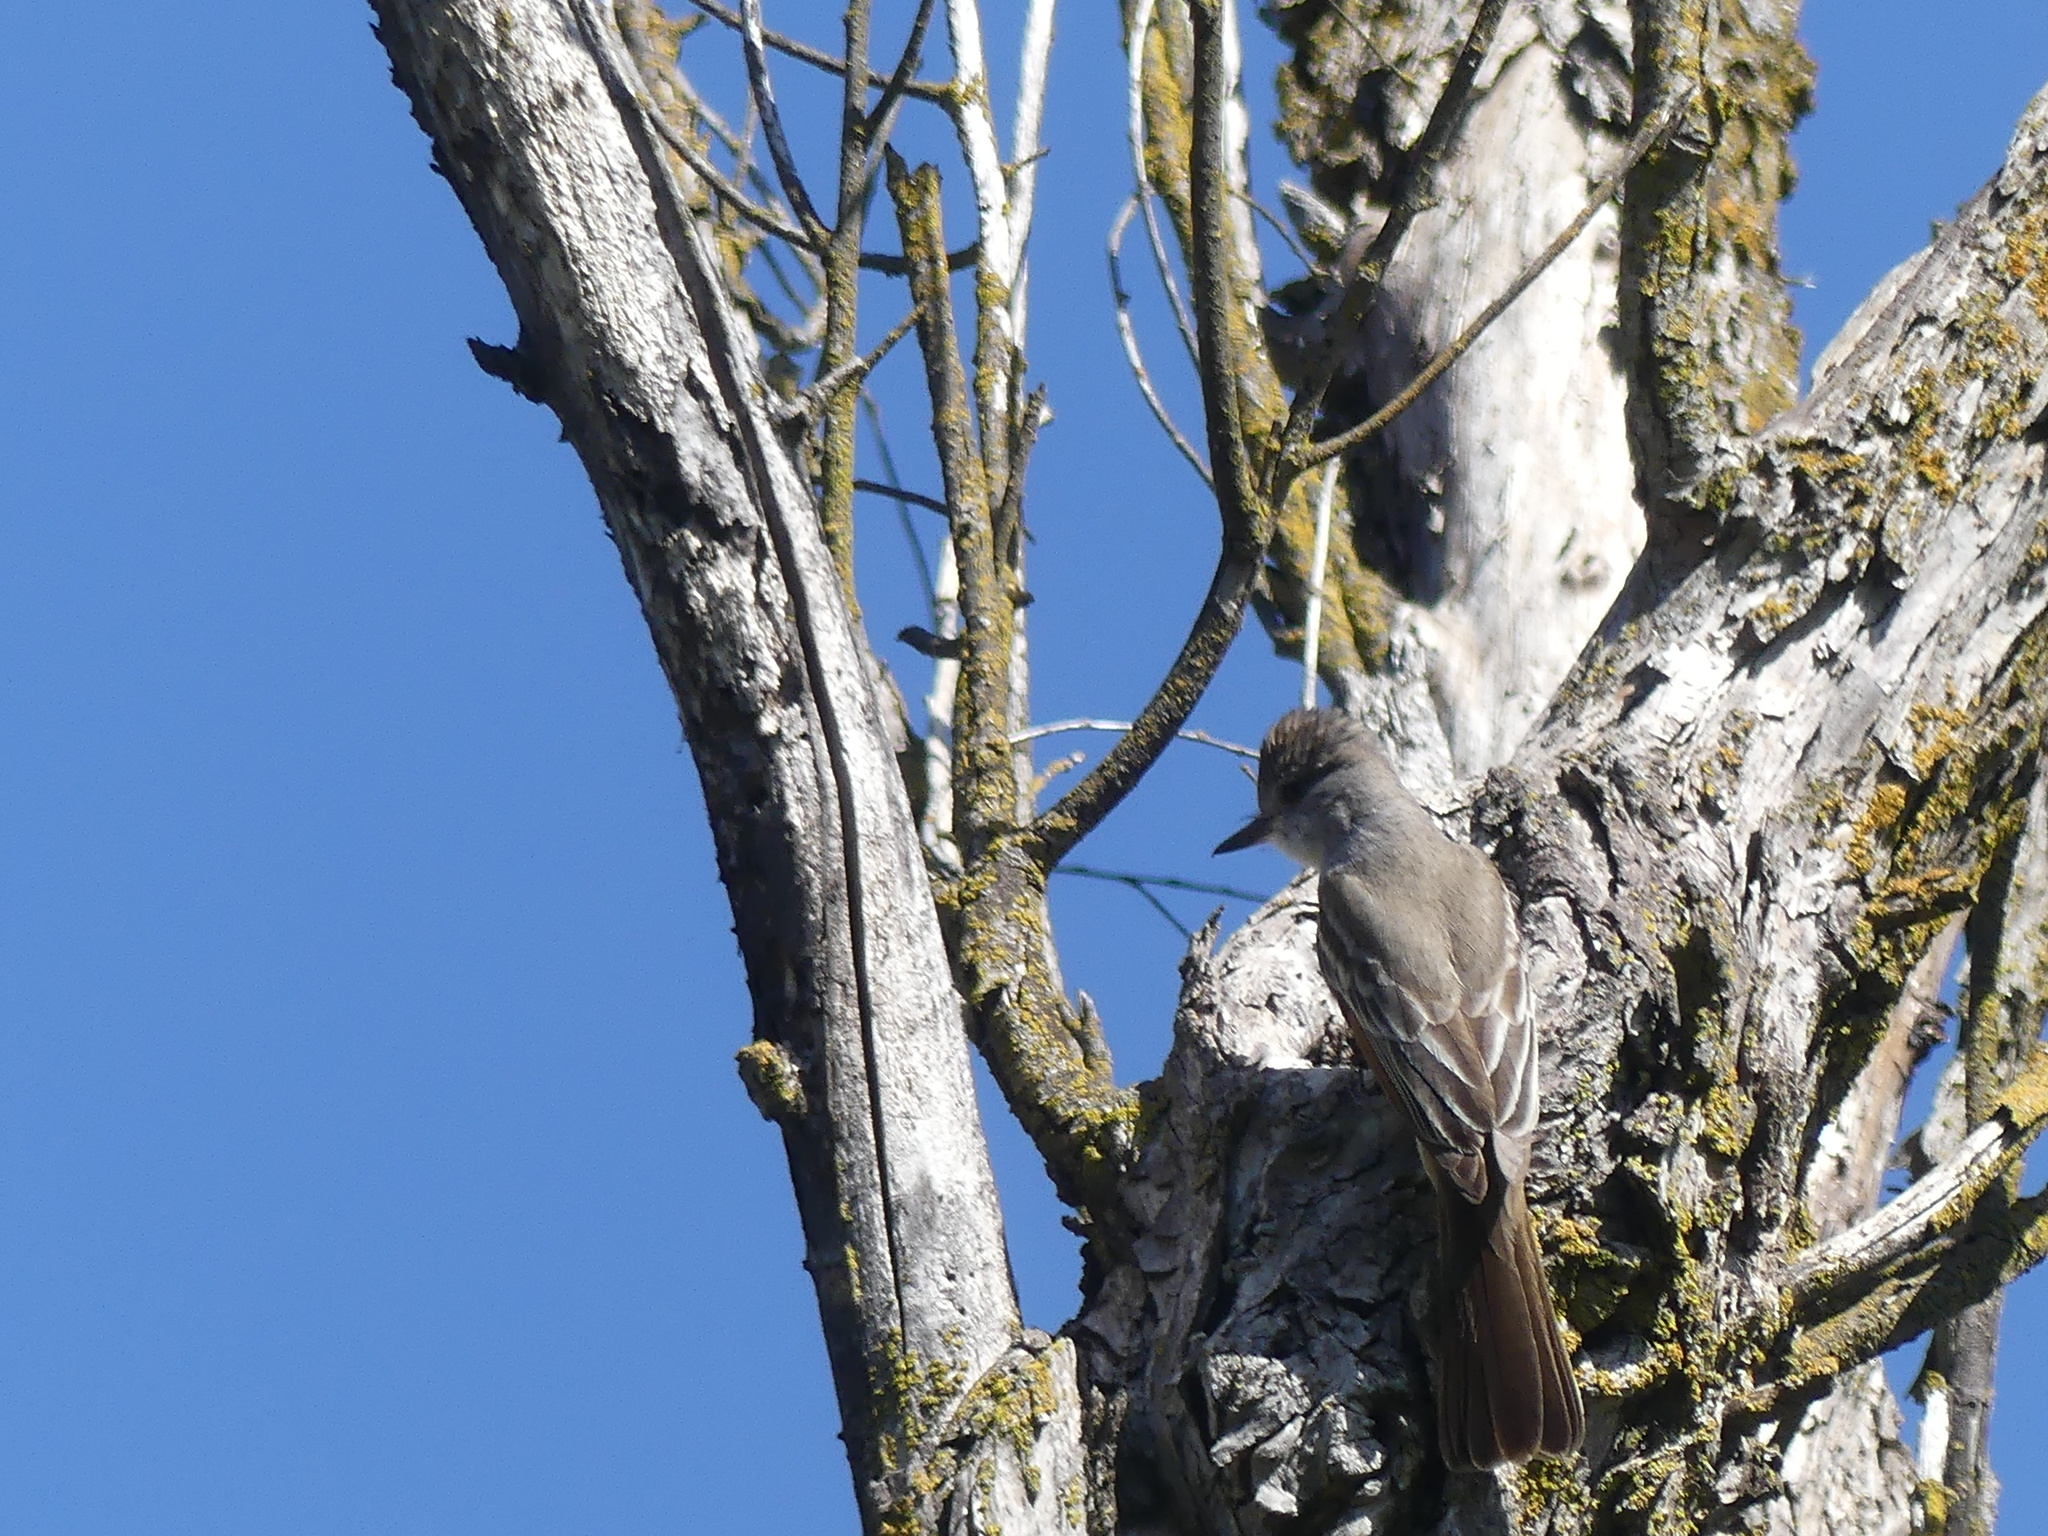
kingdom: Animalia
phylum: Chordata
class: Aves
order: Passeriformes
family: Tyrannidae
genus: Myiarchus
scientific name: Myiarchus cinerascens
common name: Ash-throated flycatcher
